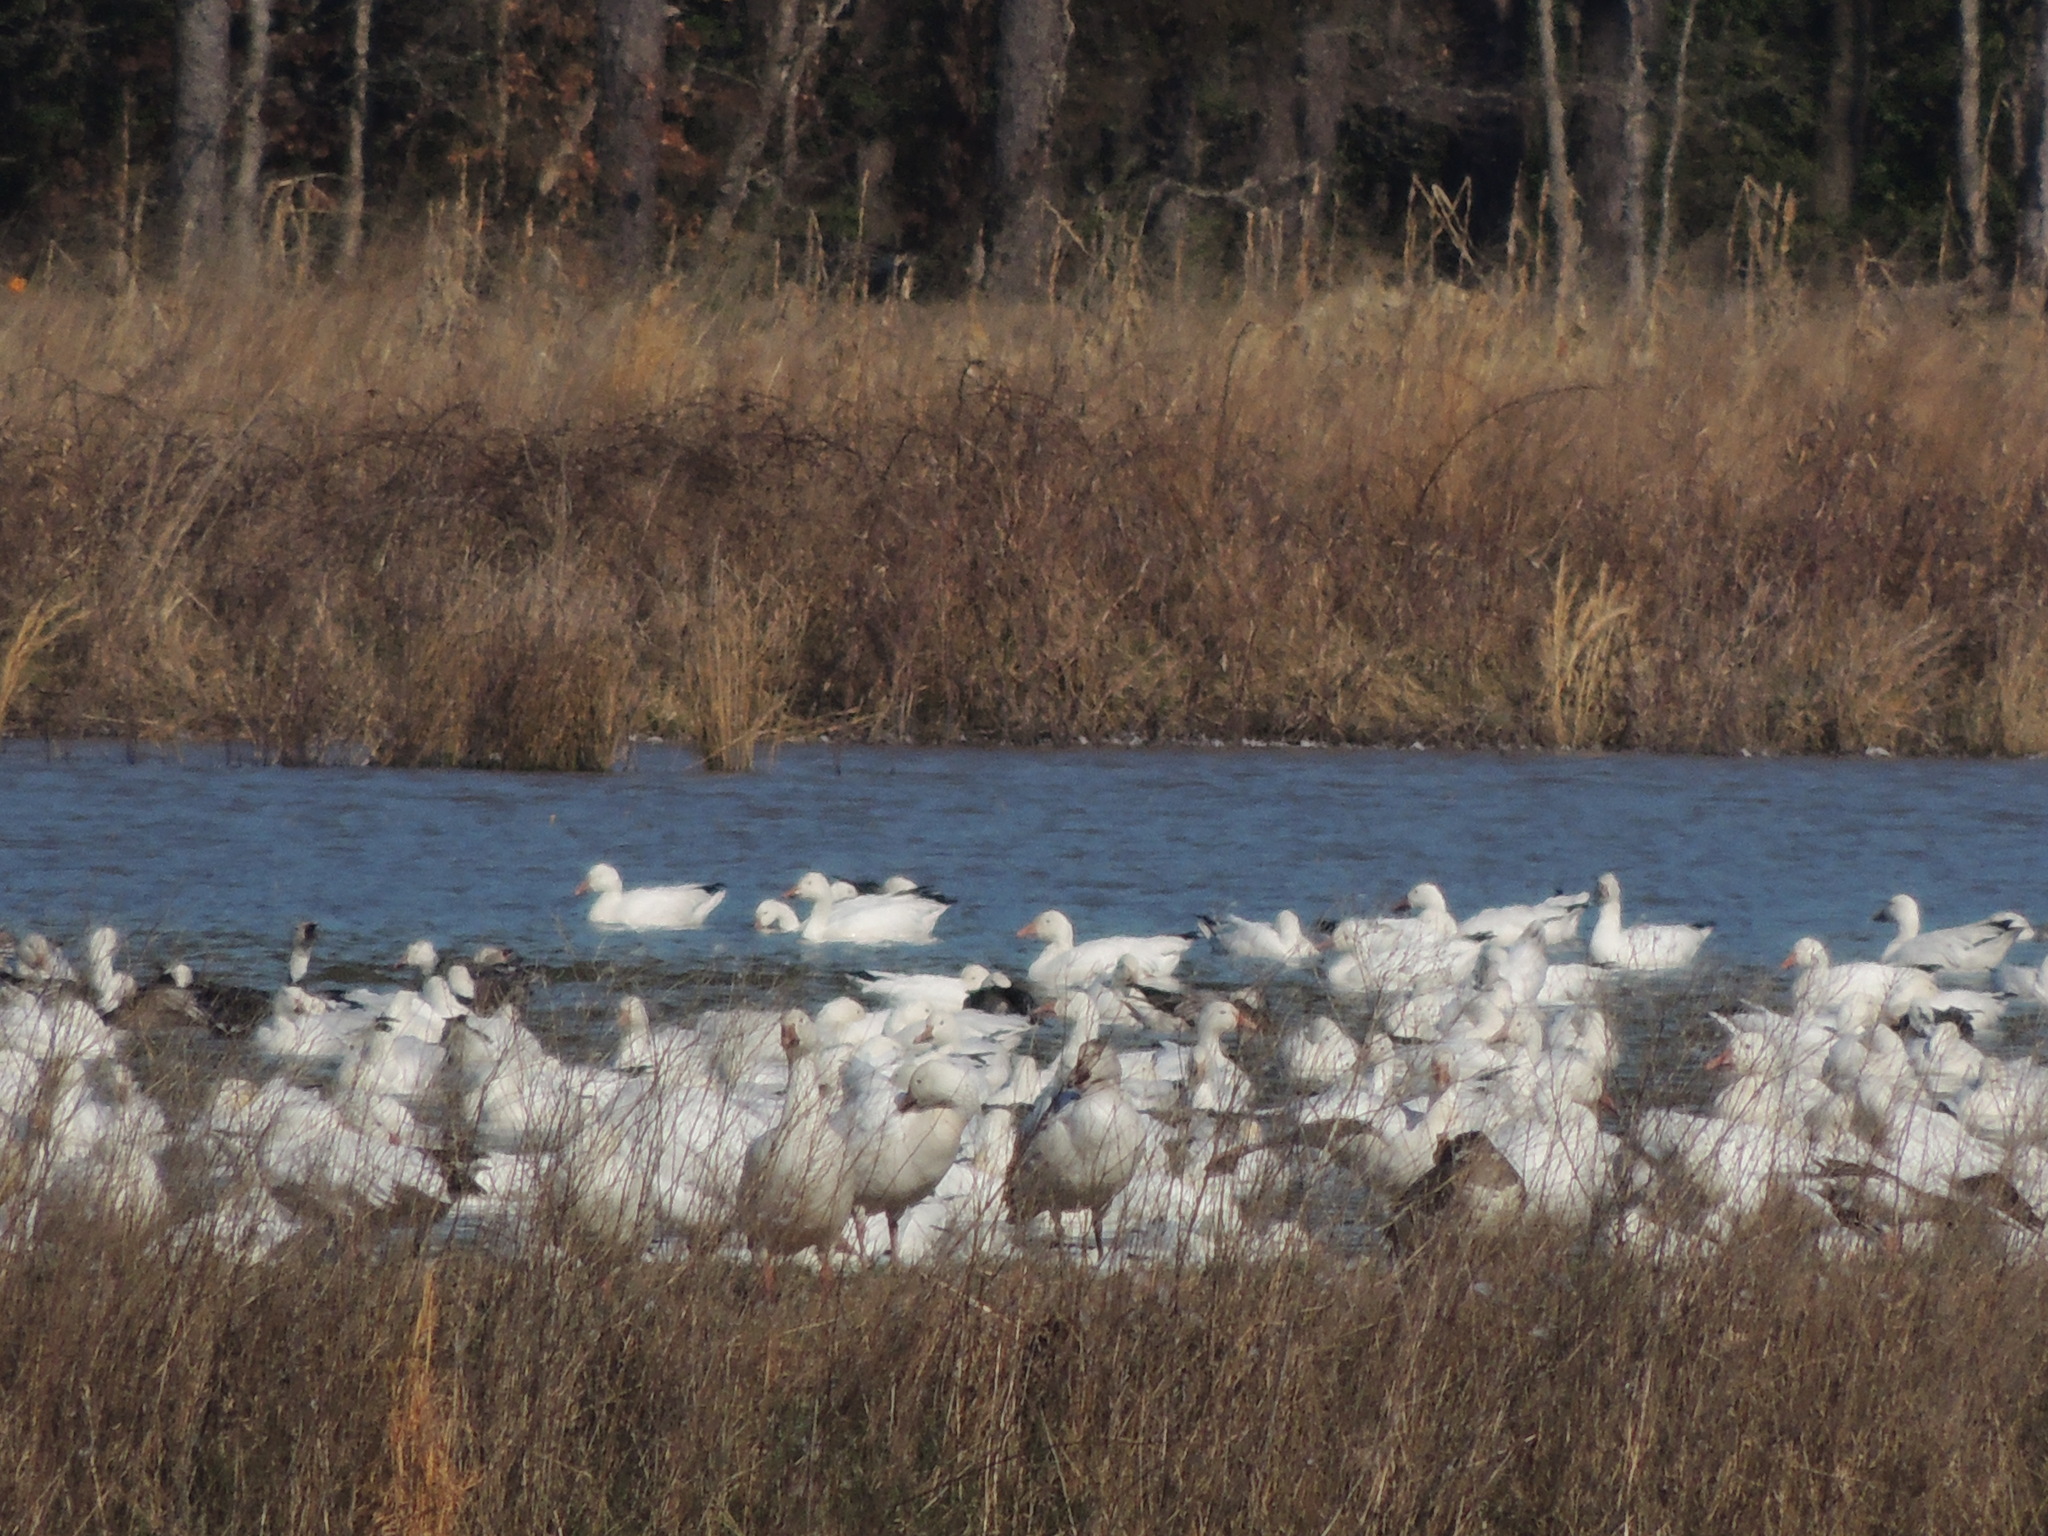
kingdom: Animalia
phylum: Chordata
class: Aves
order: Anseriformes
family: Anatidae
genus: Anser
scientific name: Anser caerulescens
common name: Snow goose
